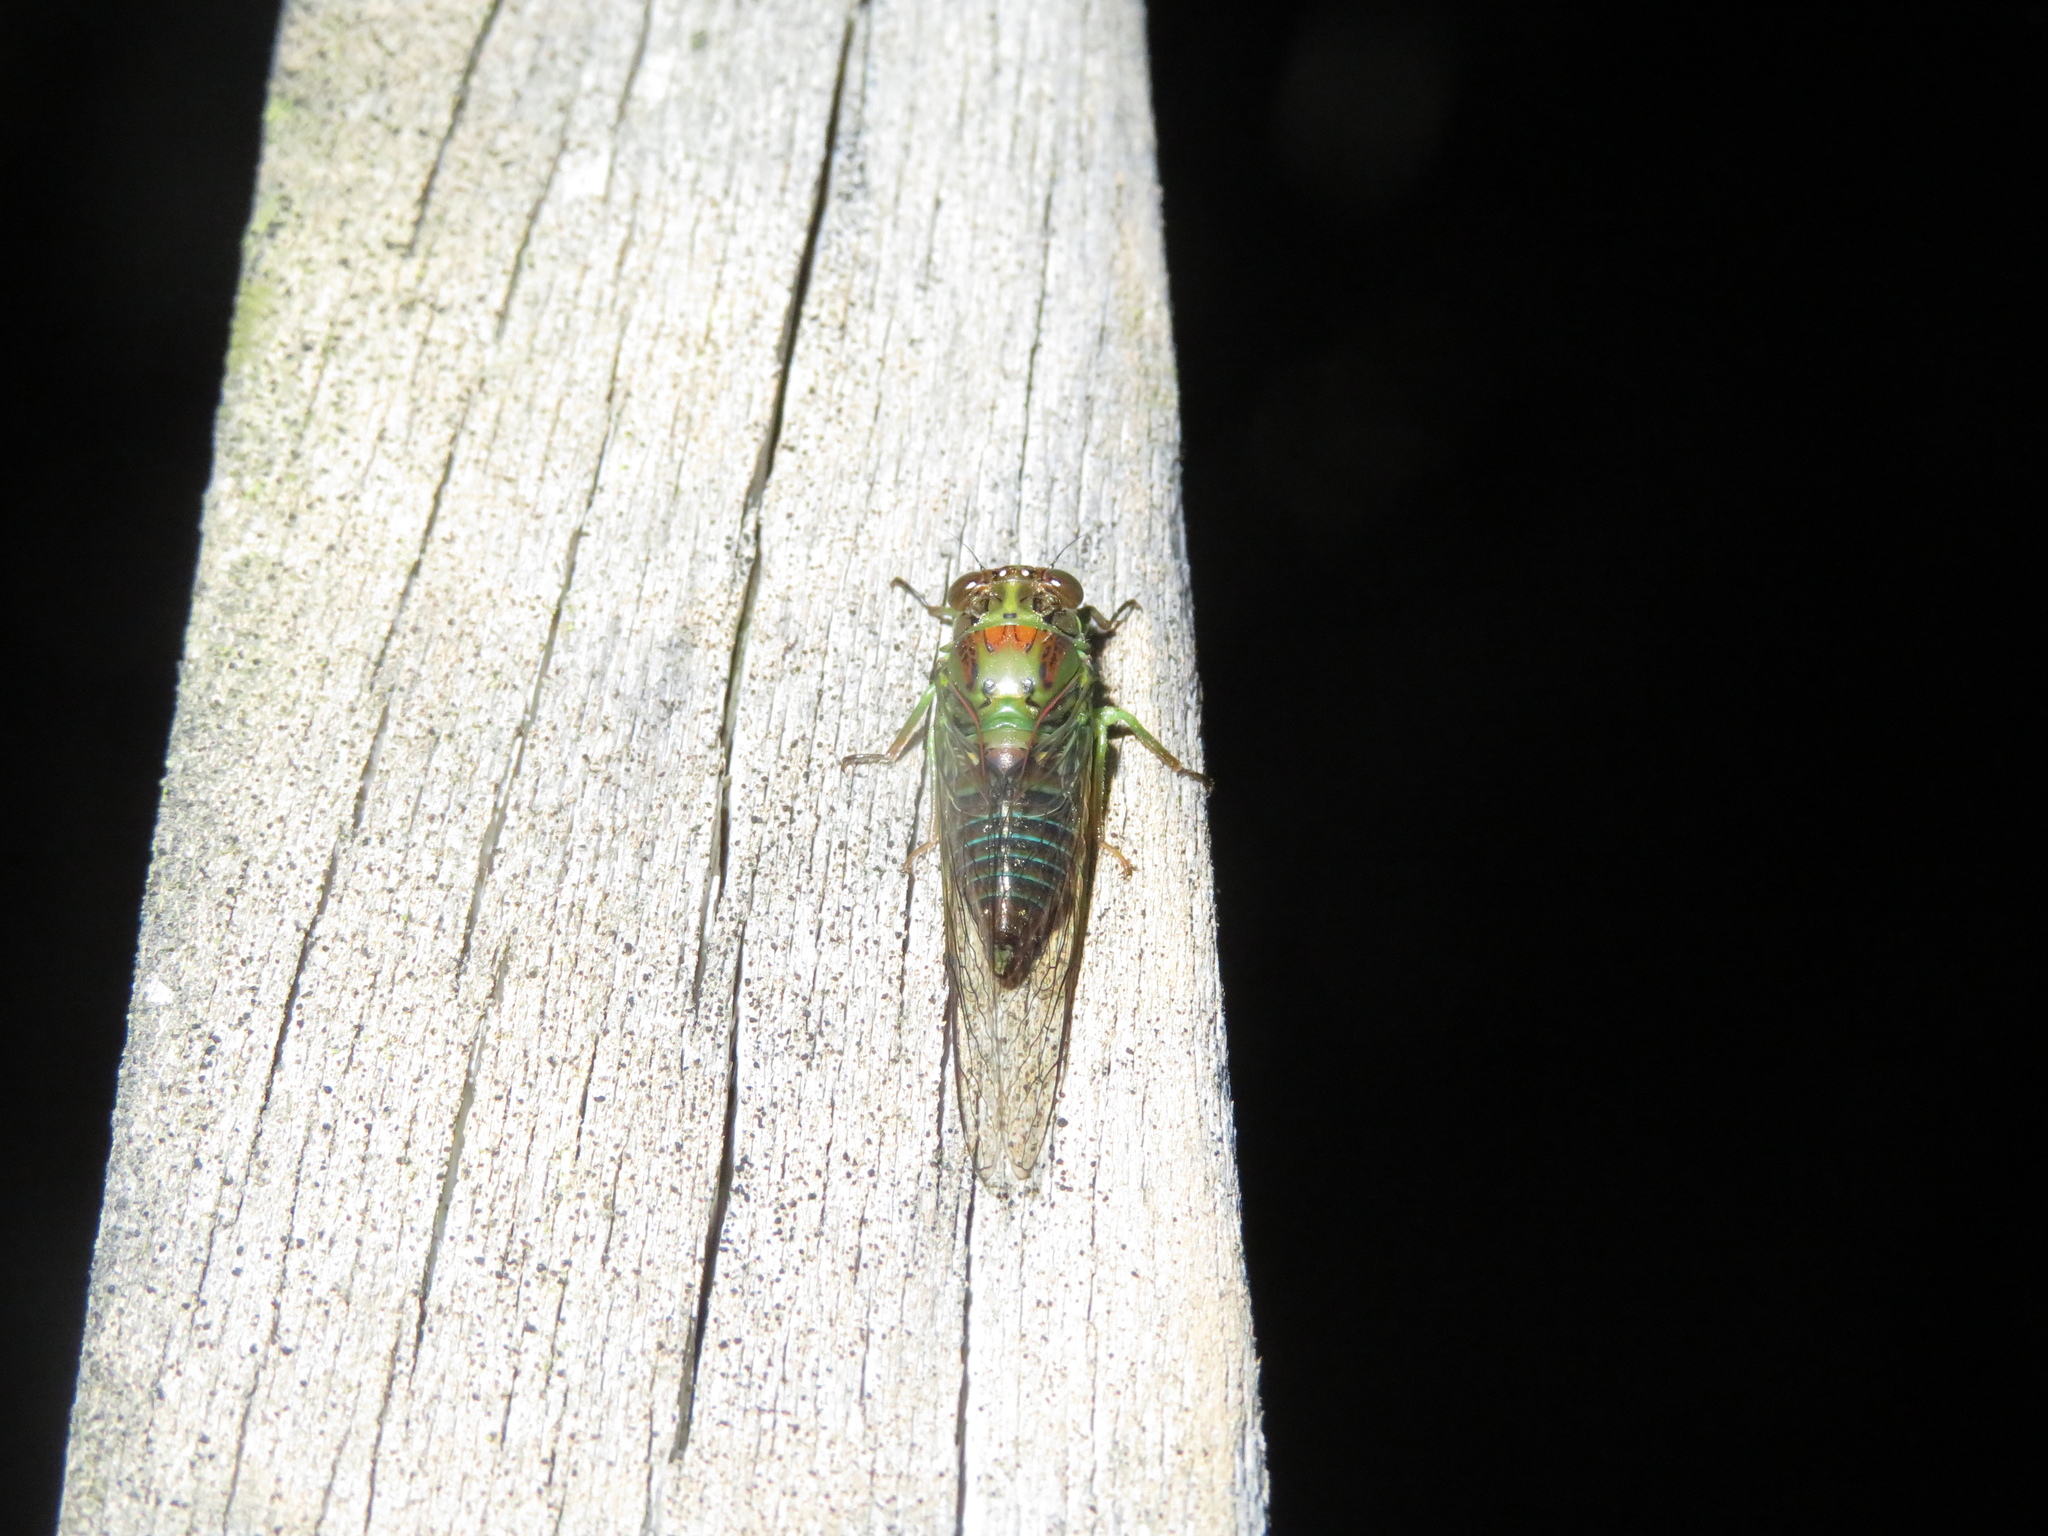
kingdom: Animalia
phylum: Arthropoda
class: Insecta
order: Hemiptera
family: Cicadidae
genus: Kikihia
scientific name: Kikihia scutellaris
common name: Lesser bronze cicada
